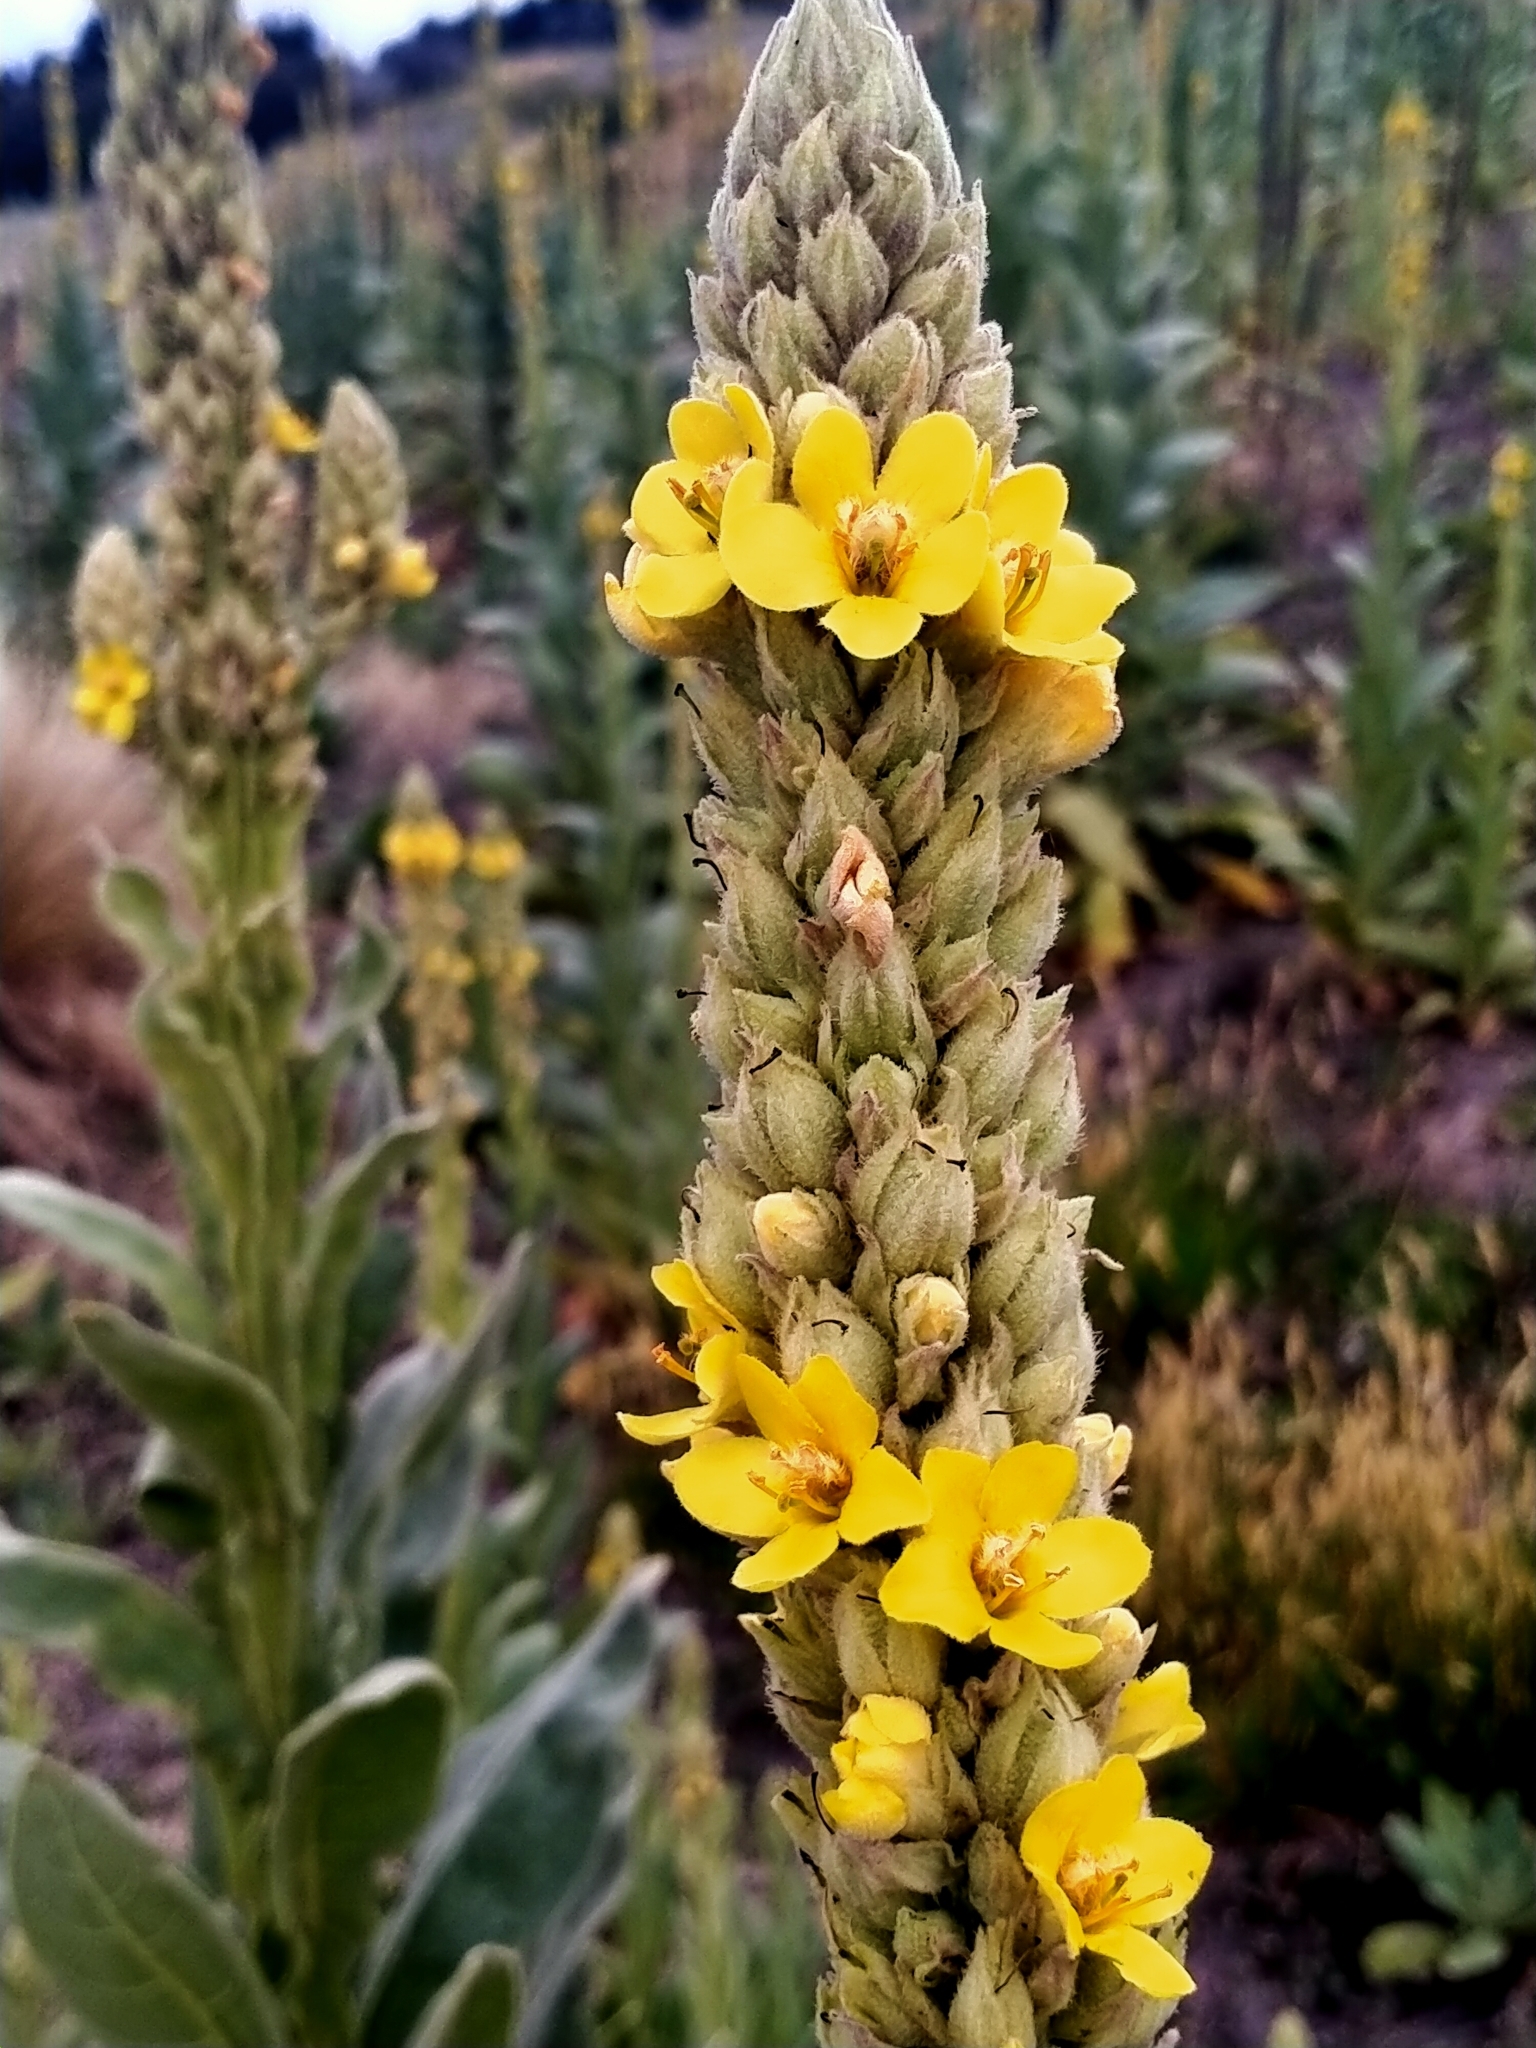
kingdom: Plantae
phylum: Tracheophyta
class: Magnoliopsida
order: Lamiales
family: Scrophulariaceae
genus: Verbascum
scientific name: Verbascum thapsus
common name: Common mullein
